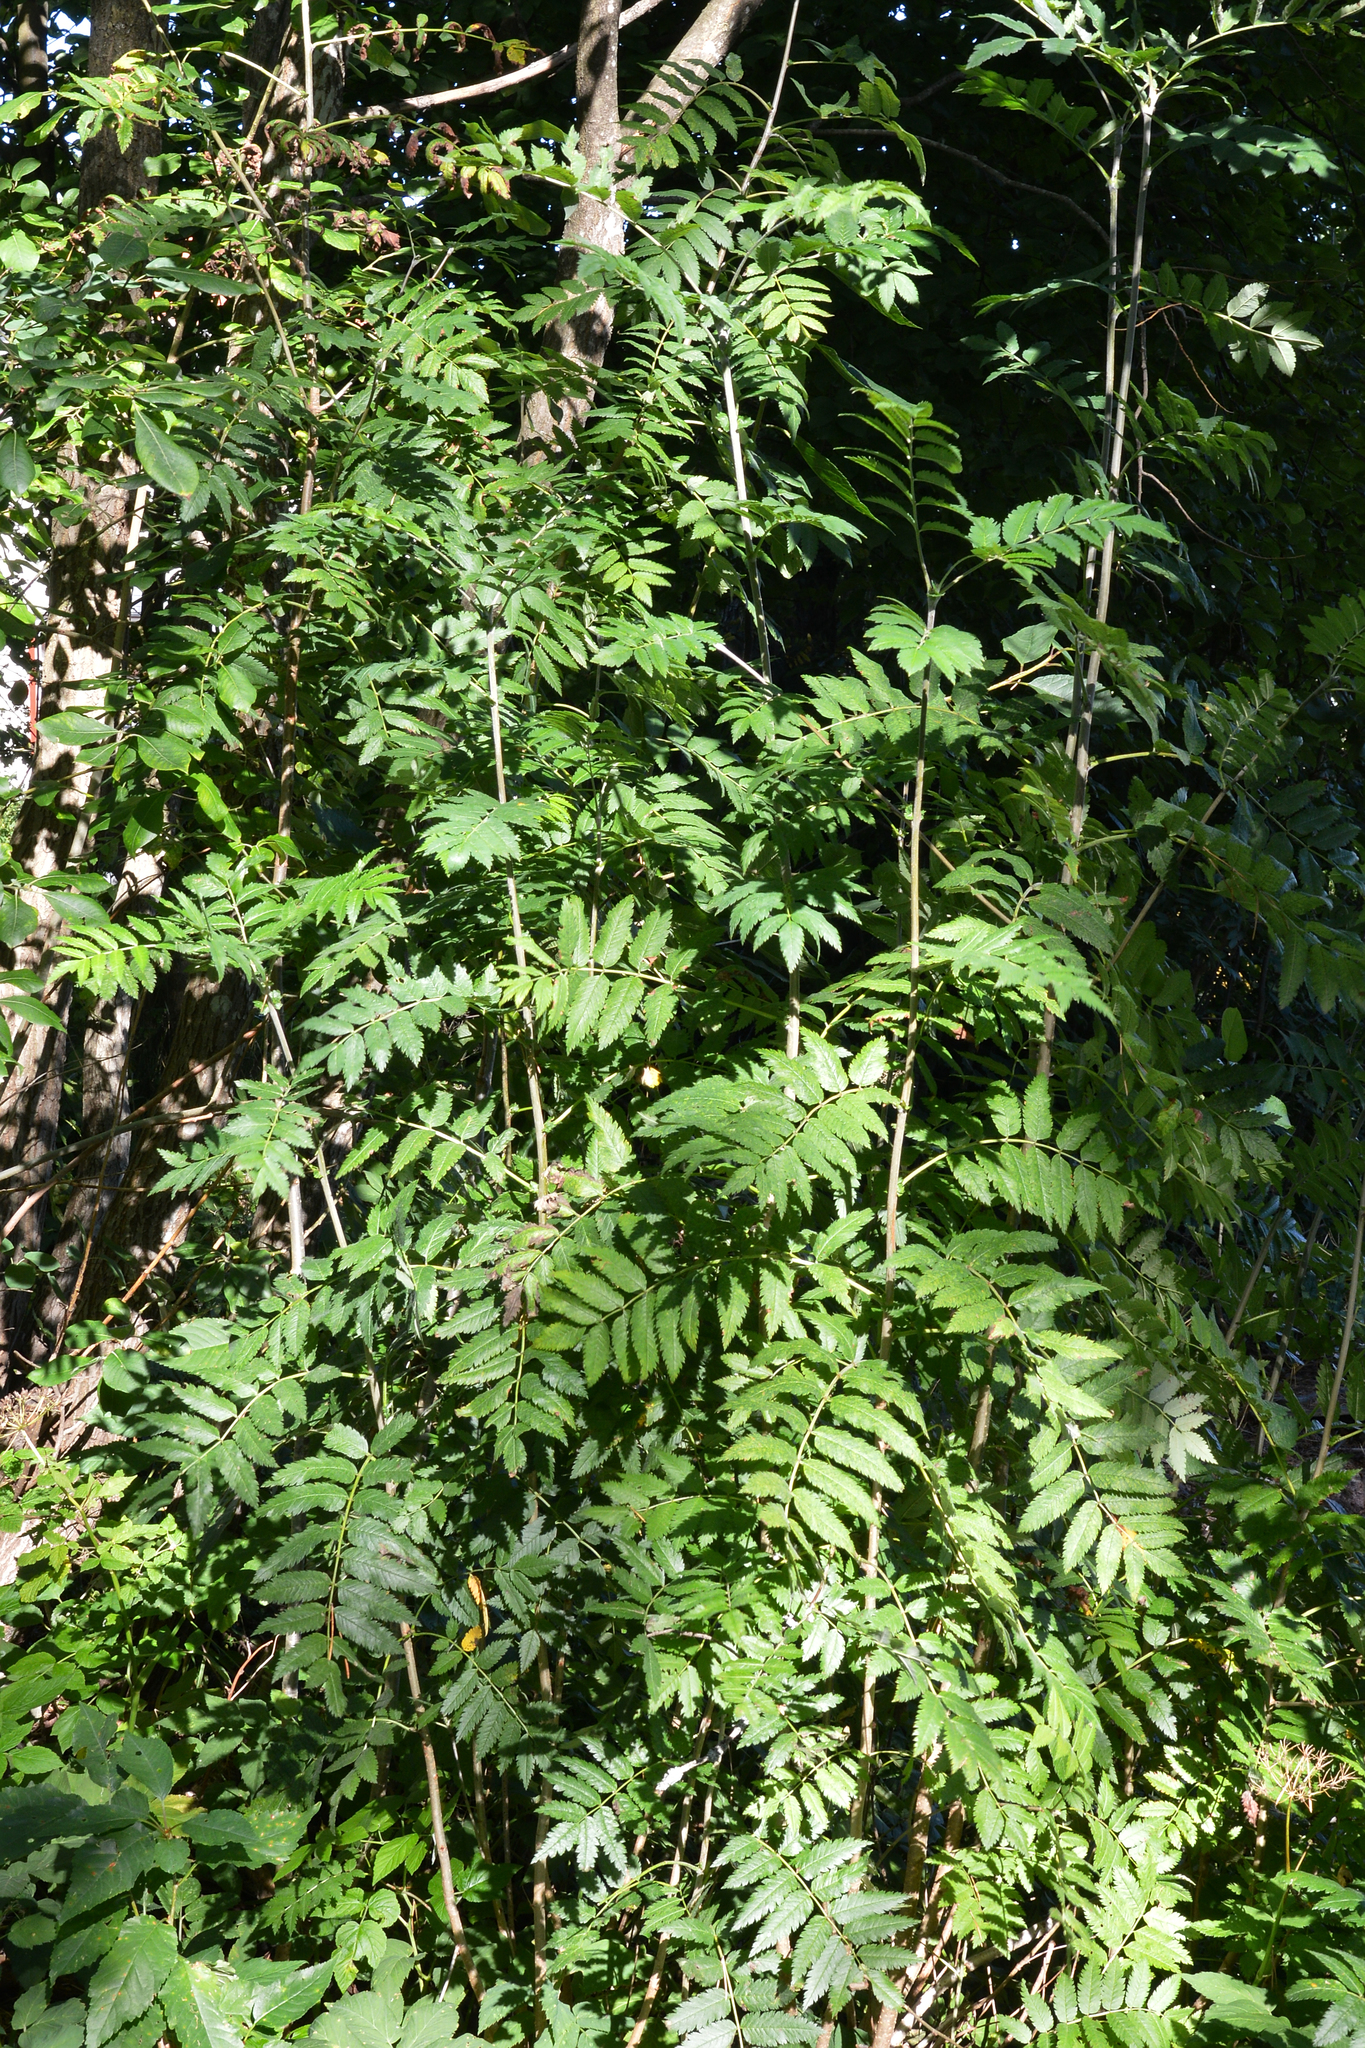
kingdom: Plantae
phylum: Tracheophyta
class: Magnoliopsida
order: Rosales
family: Rosaceae
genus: Sorbus
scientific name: Sorbus aucuparia
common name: Rowan
